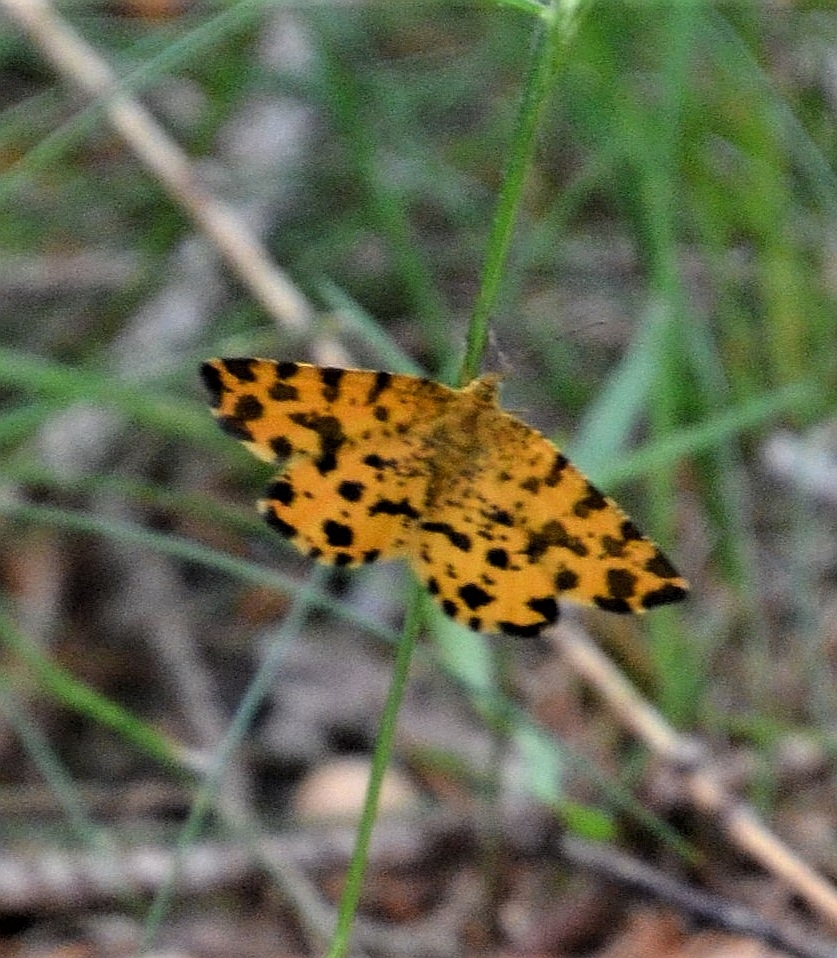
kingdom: Animalia
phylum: Arthropoda
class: Insecta
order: Lepidoptera
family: Geometridae
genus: Pseudopanthera
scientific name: Pseudopanthera macularia
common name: Speckled yellow
